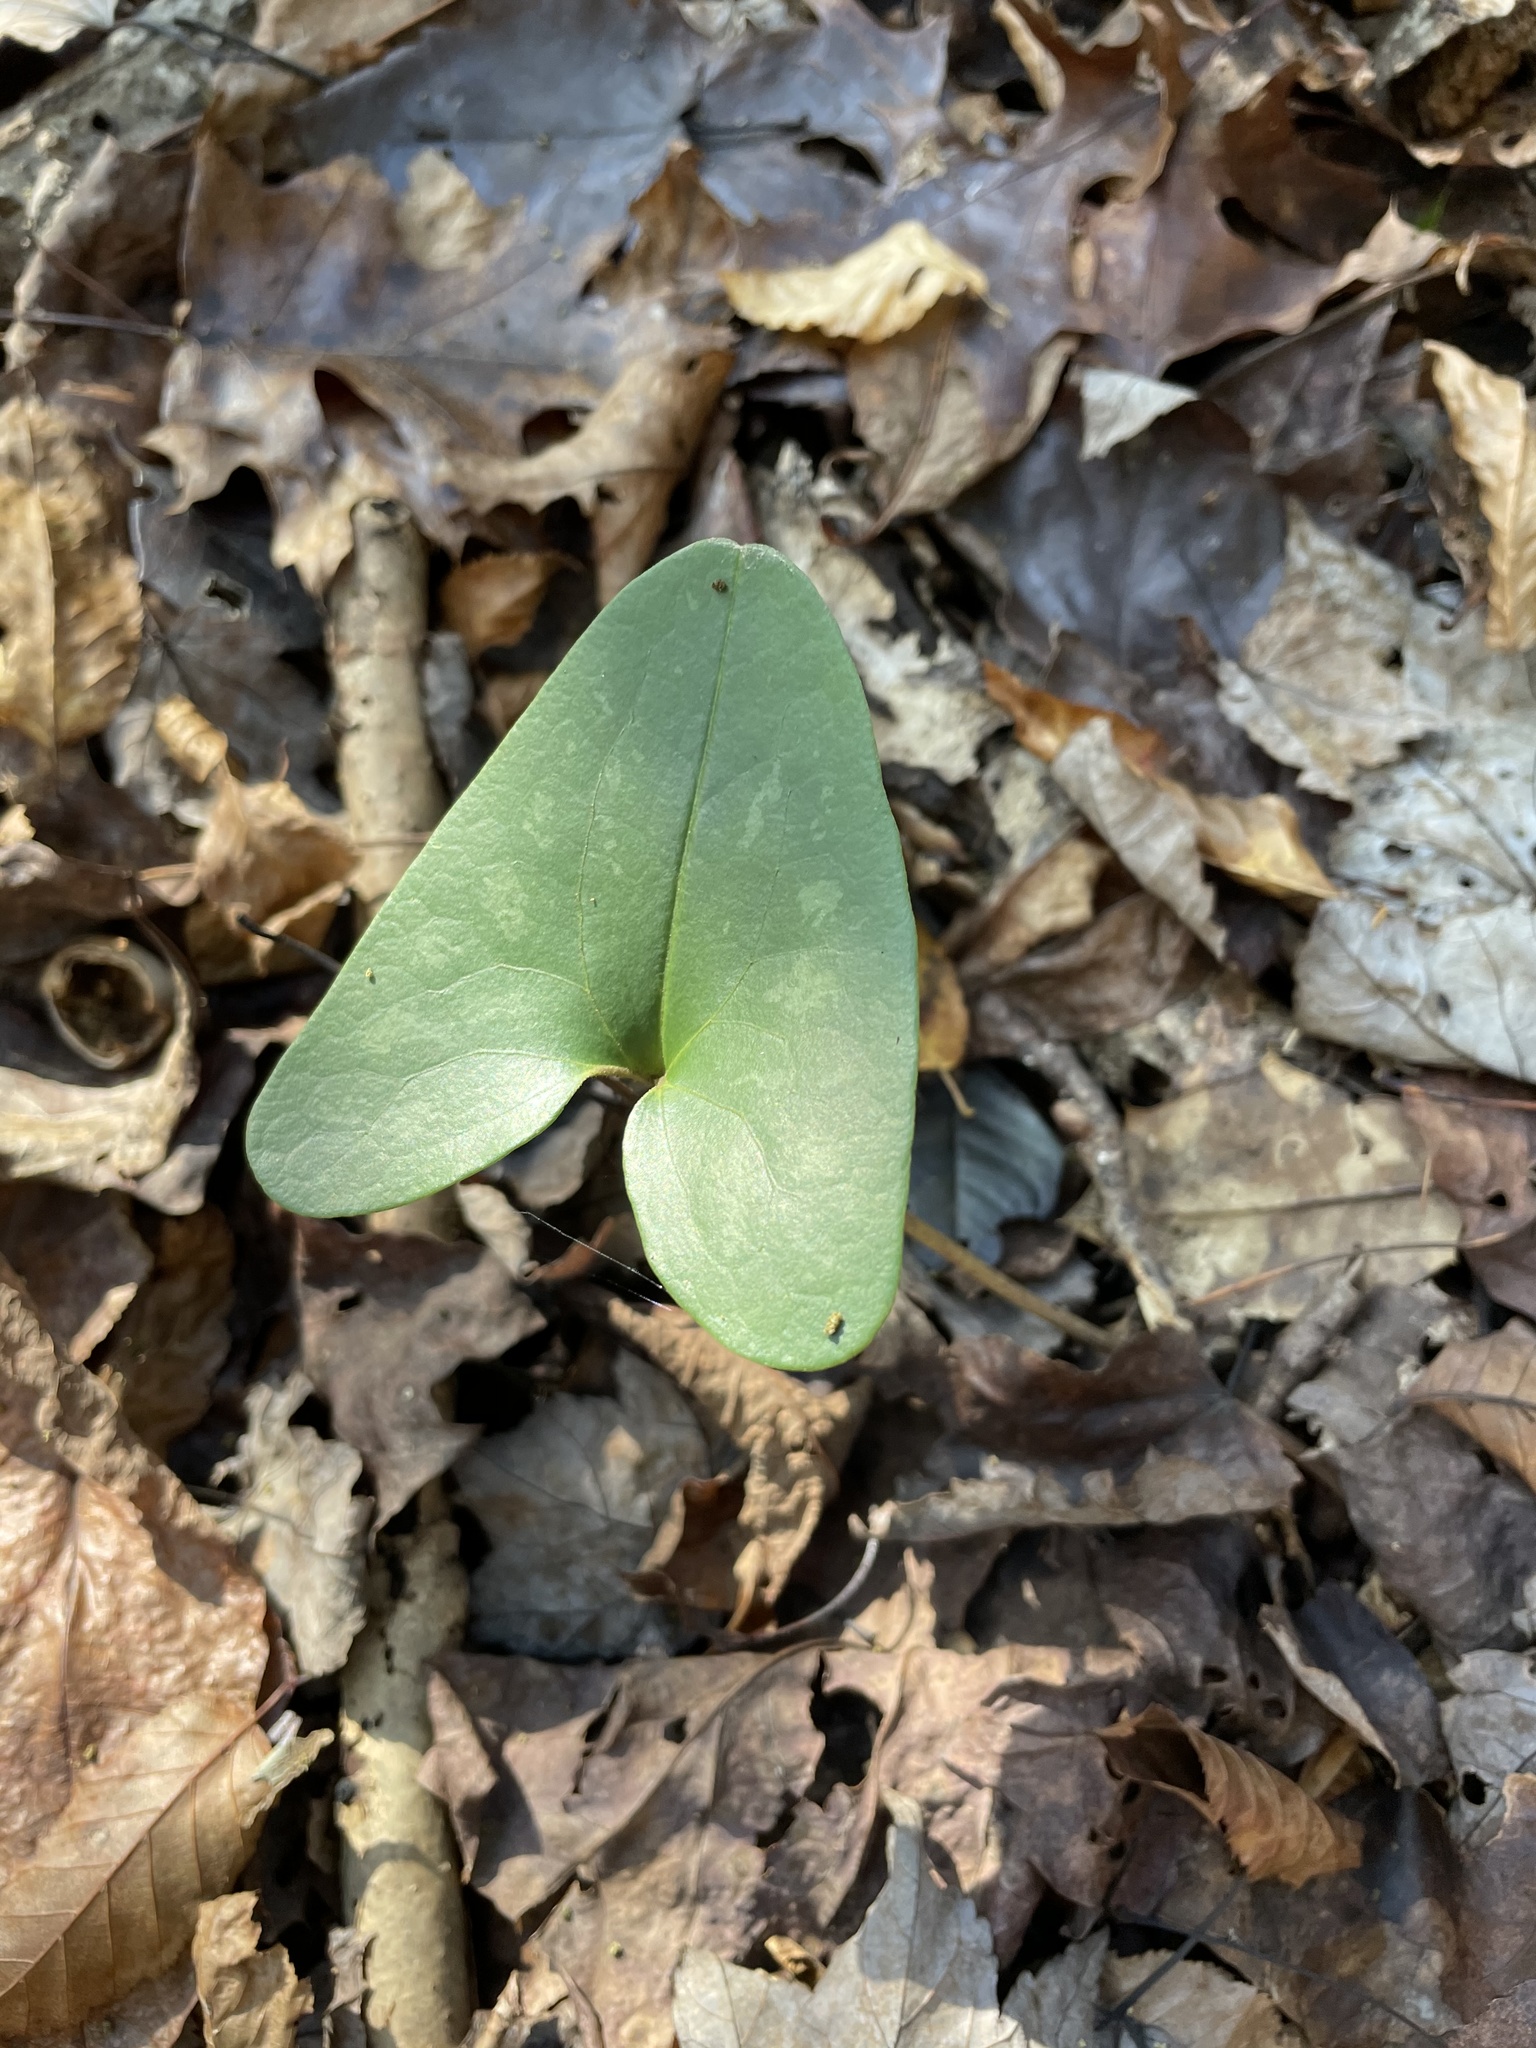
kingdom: Plantae
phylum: Tracheophyta
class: Magnoliopsida
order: Piperales
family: Aristolochiaceae
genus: Hexastylis
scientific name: Hexastylis arifolia
